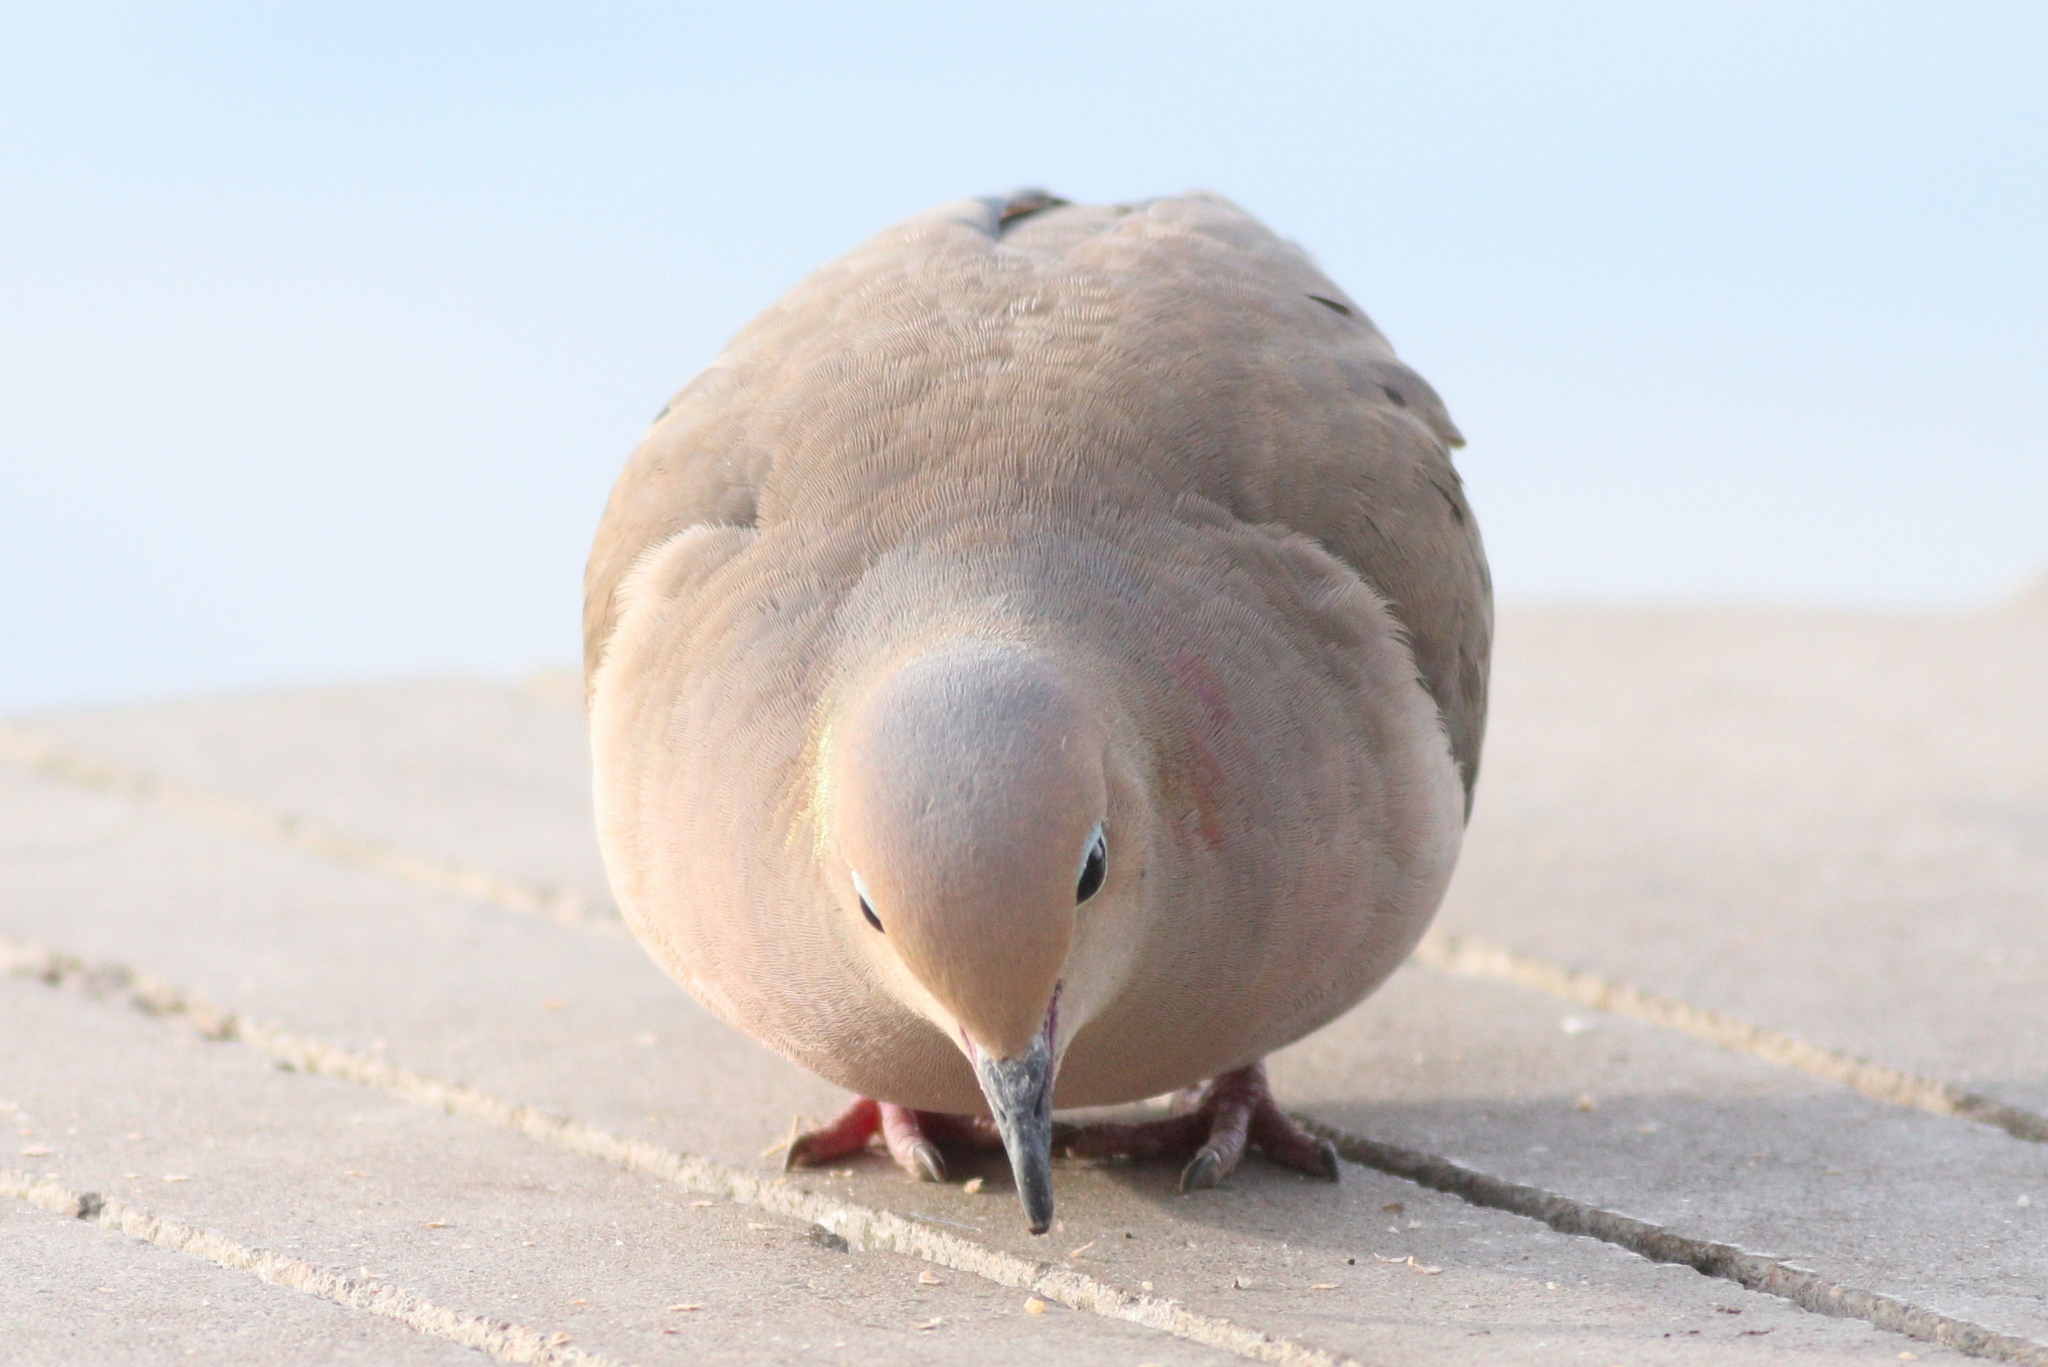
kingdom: Animalia
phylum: Chordata
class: Aves
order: Columbiformes
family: Columbidae
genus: Zenaida
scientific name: Zenaida macroura
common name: Mourning dove
